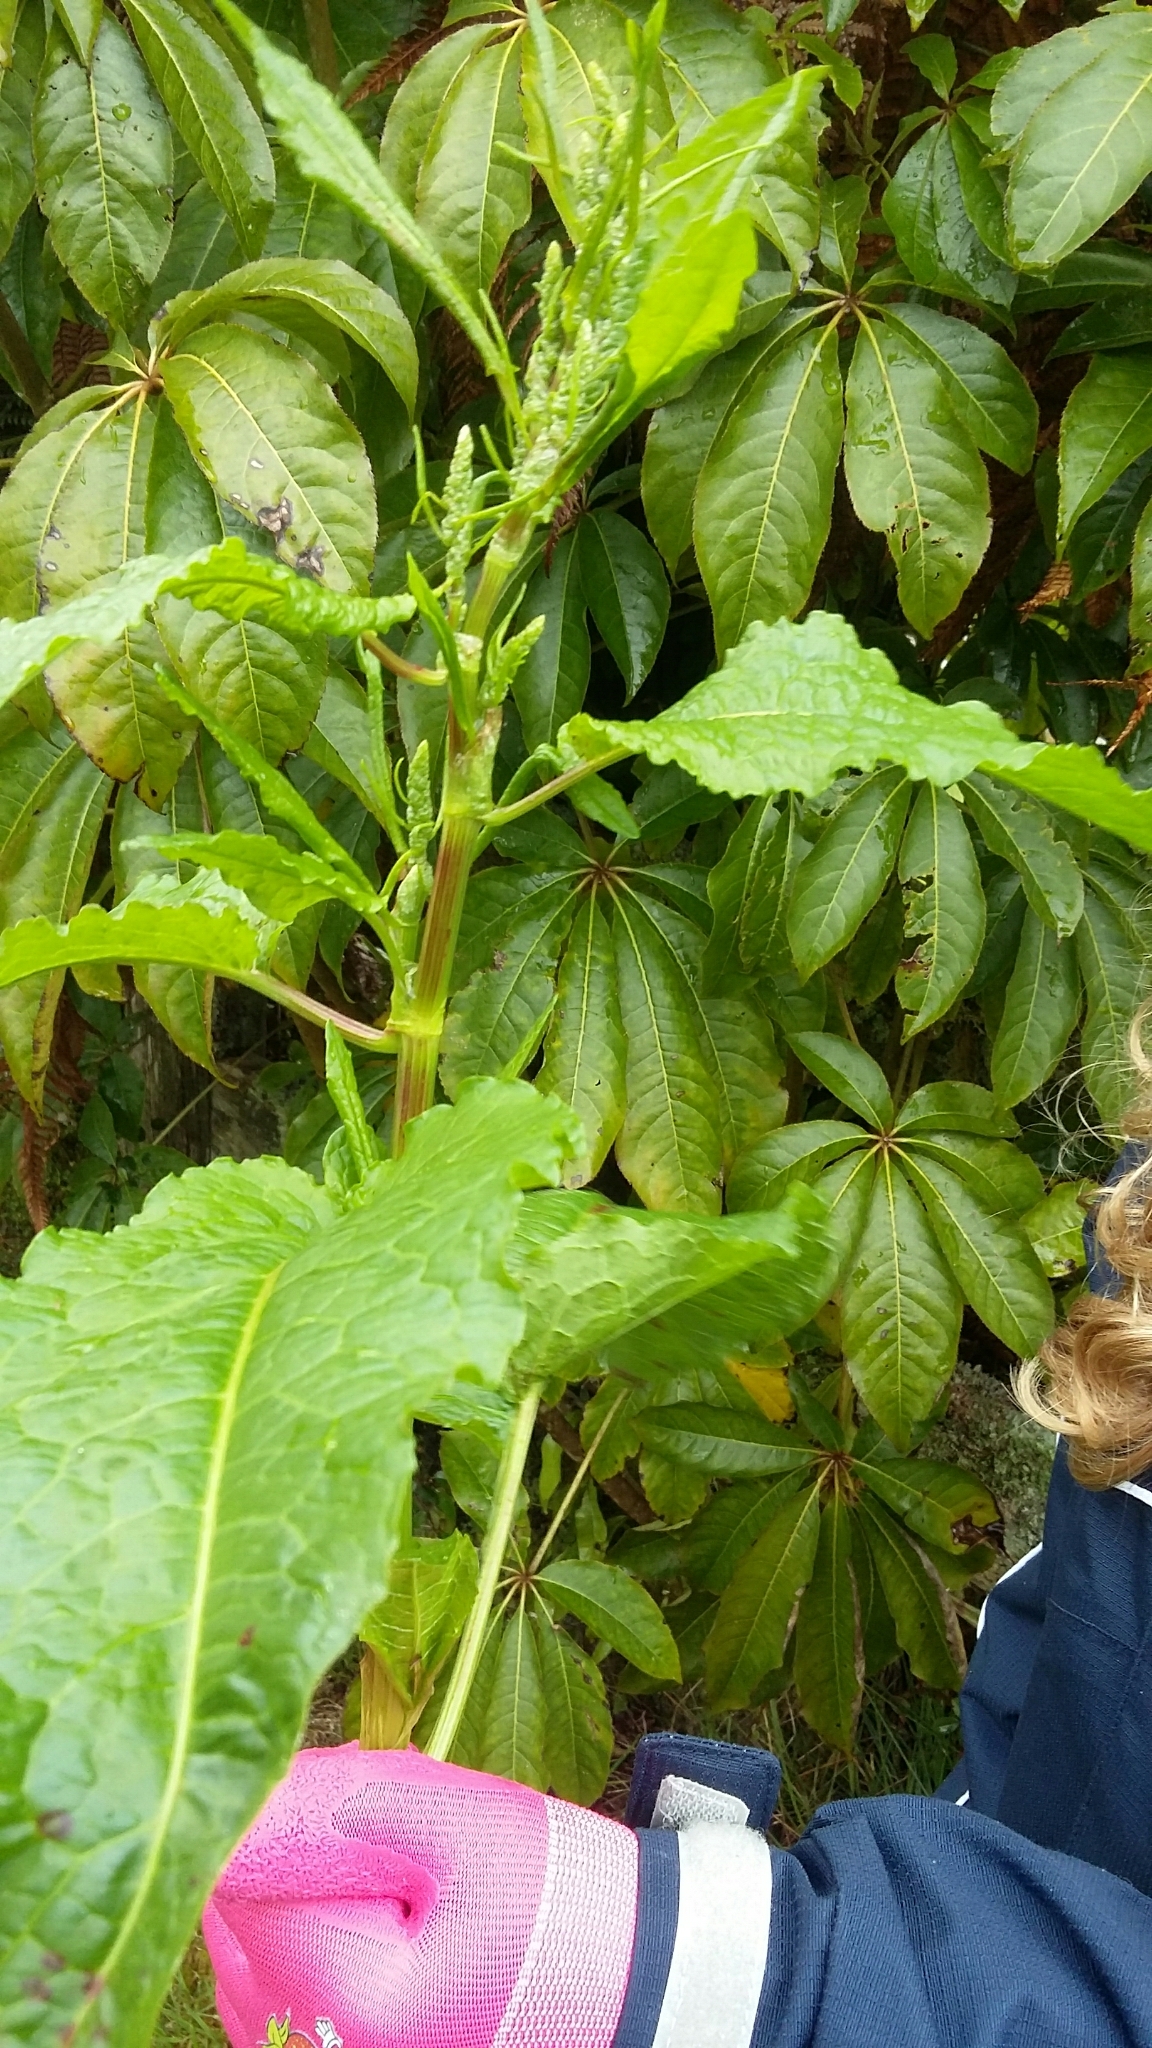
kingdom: Plantae
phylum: Tracheophyta
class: Magnoliopsida
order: Caryophyllales
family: Polygonaceae
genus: Rumex
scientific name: Rumex obtusifolius
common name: Bitter dock
